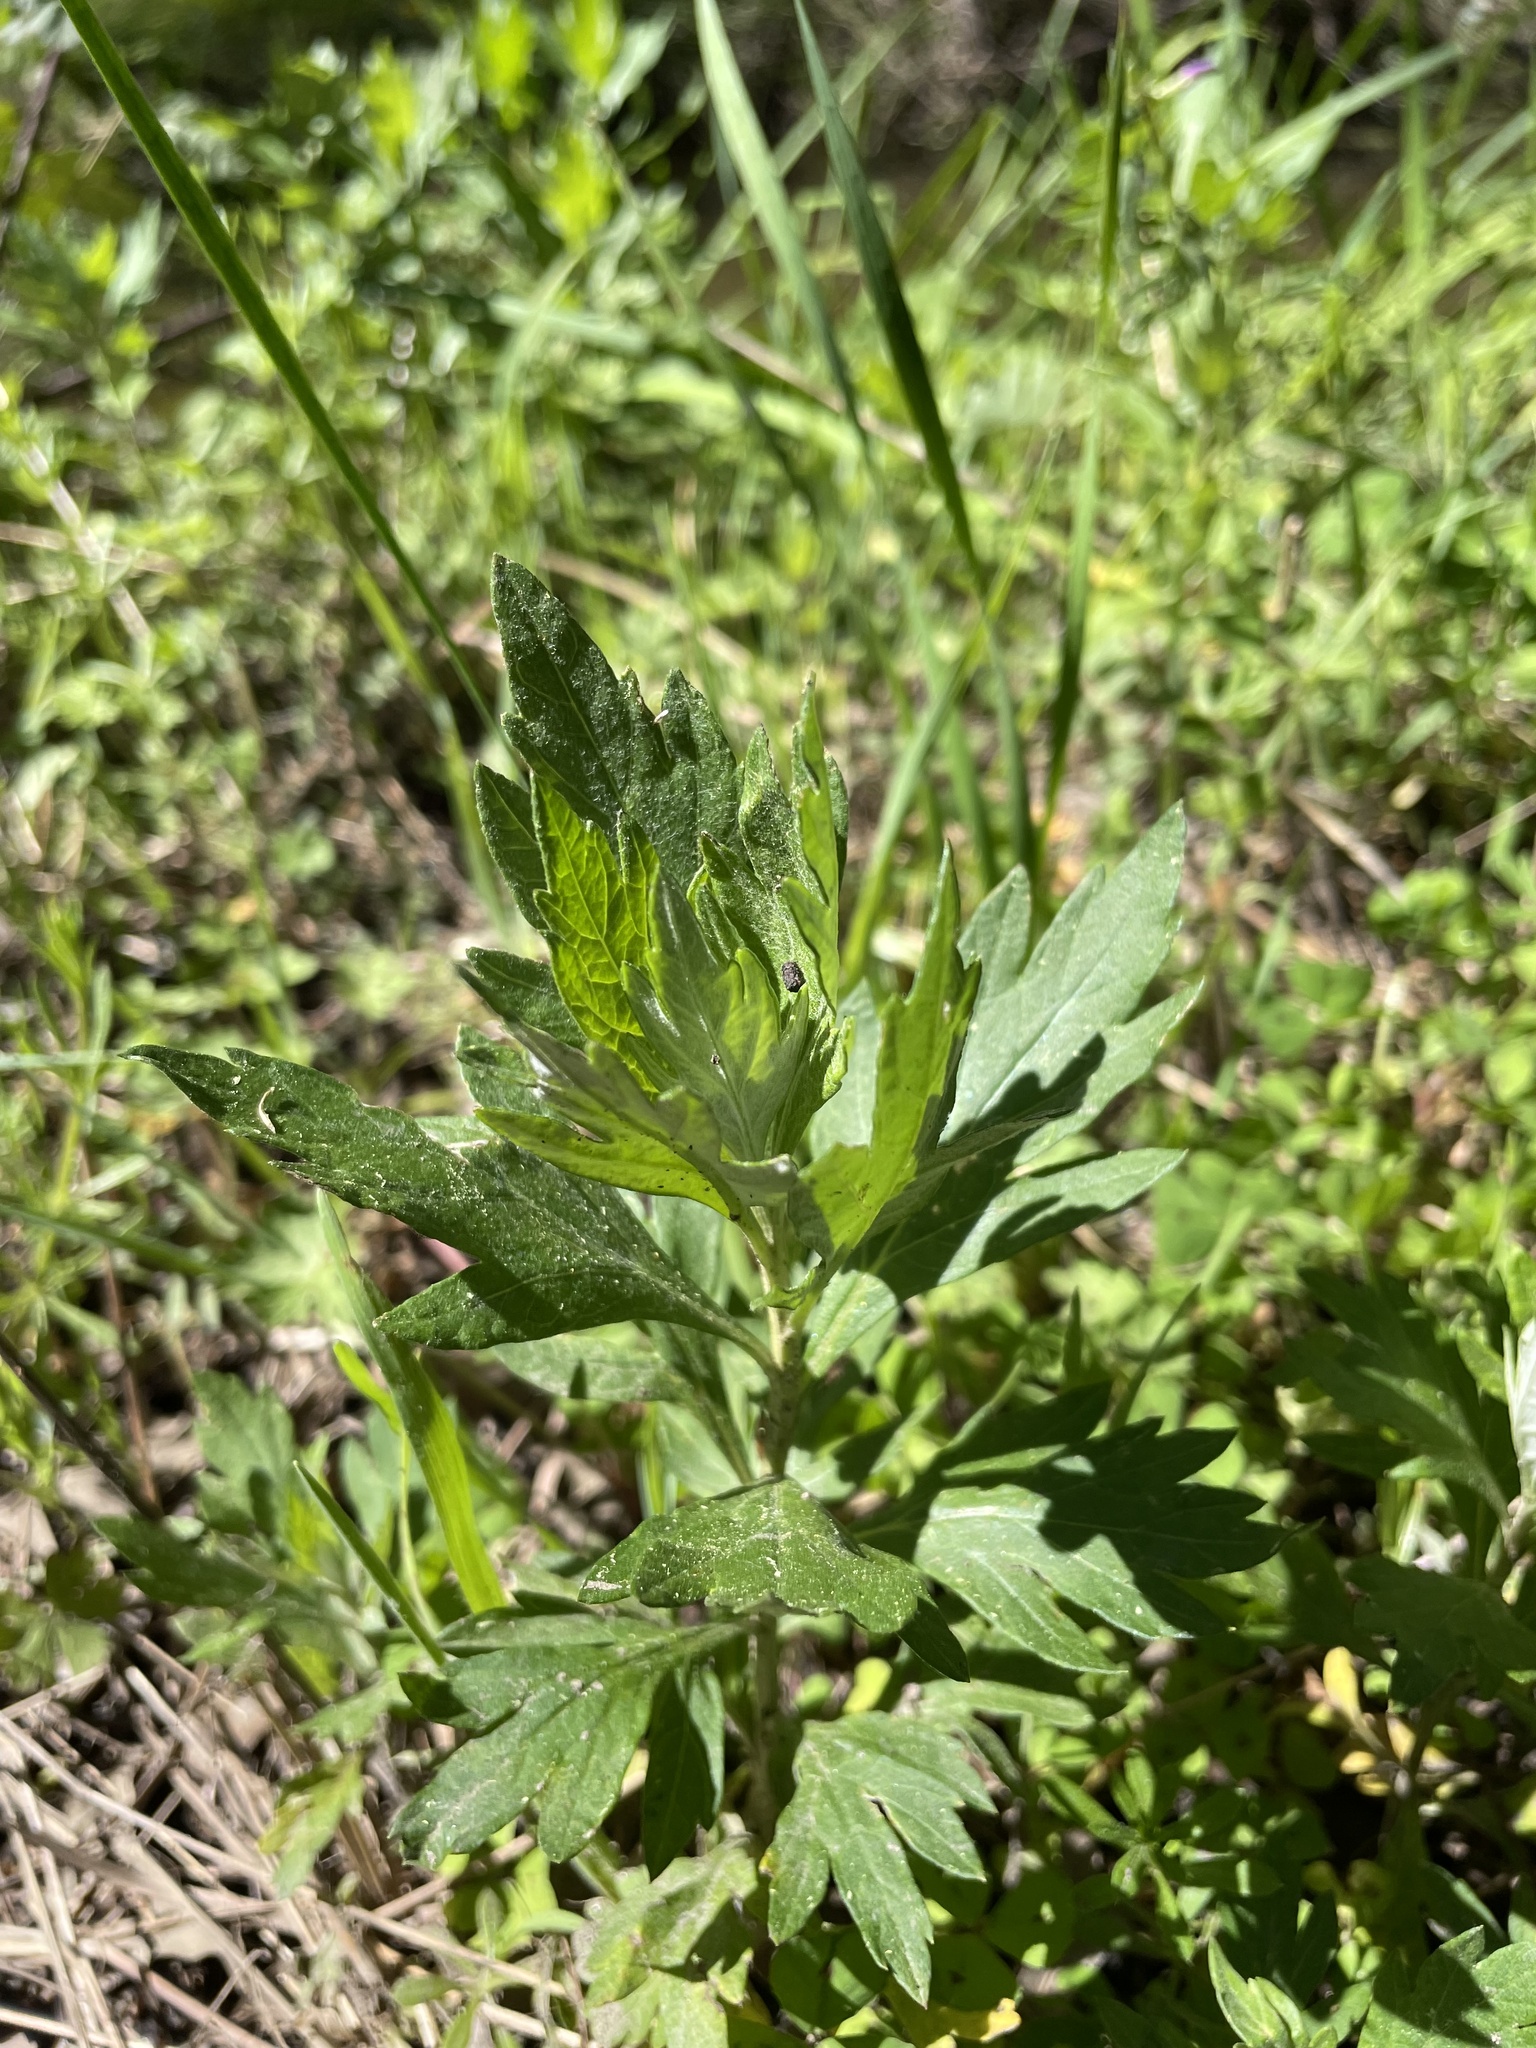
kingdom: Plantae
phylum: Tracheophyta
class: Magnoliopsida
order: Asterales
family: Asteraceae
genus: Artemisia
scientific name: Artemisia douglasiana
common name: Northwest mugwort
